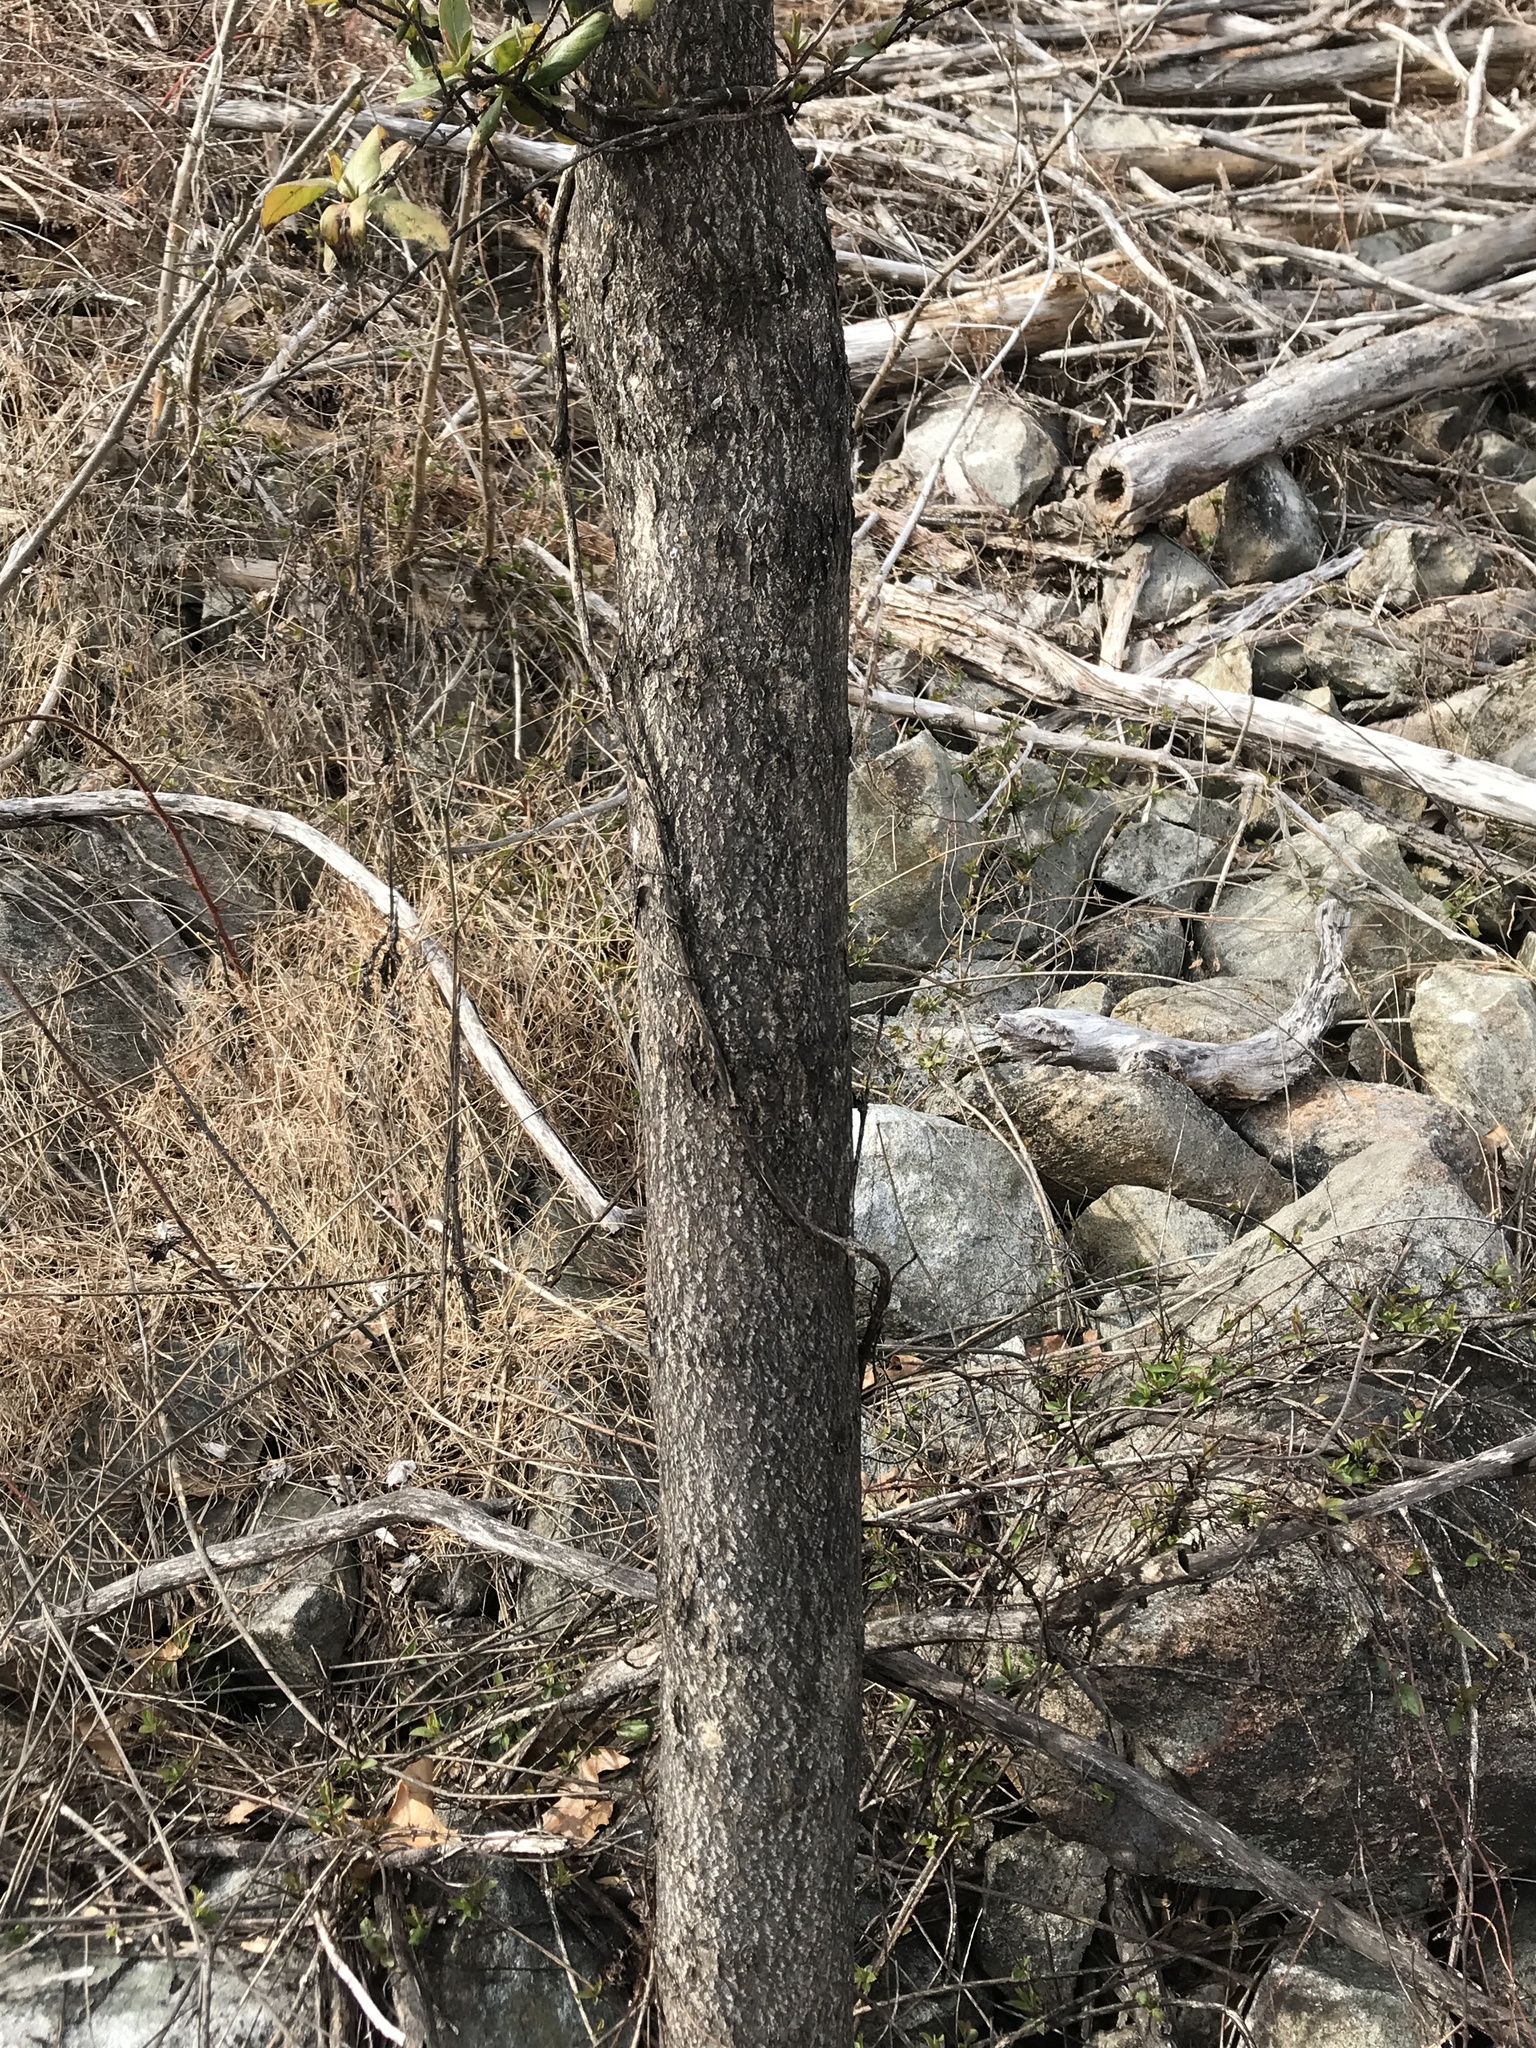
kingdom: Plantae
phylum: Tracheophyta
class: Magnoliopsida
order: Sapindales
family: Simaroubaceae
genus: Ailanthus
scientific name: Ailanthus altissima
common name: Tree-of-heaven
